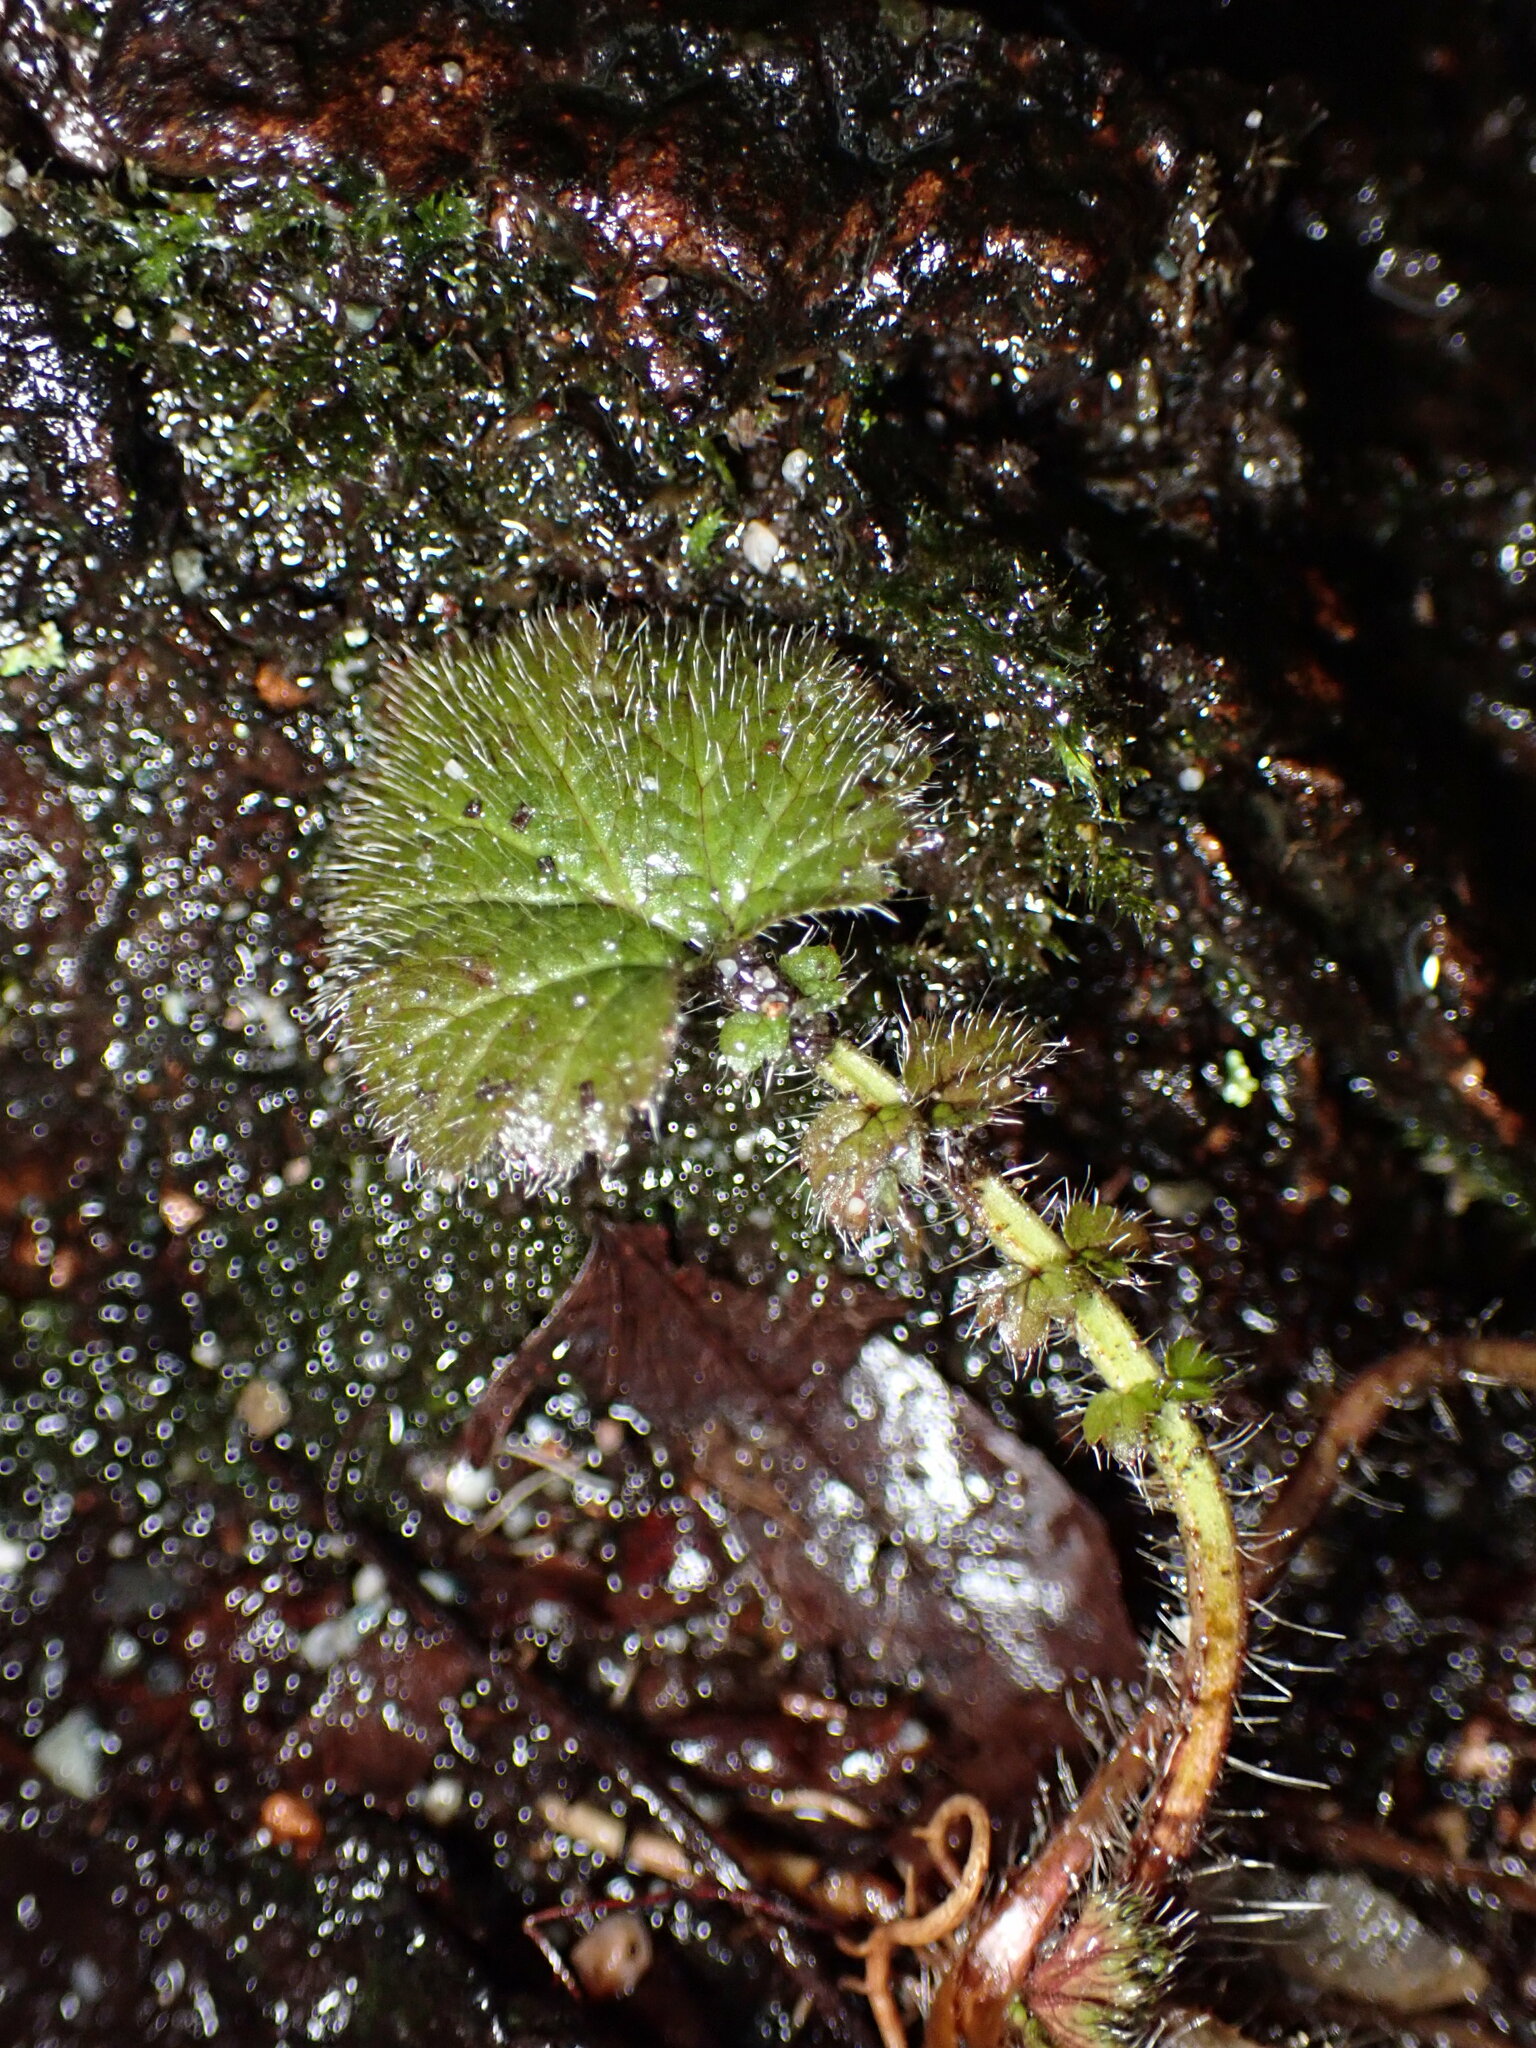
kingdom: Plantae
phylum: Tracheophyta
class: Magnoliopsida
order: Rosales
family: Rosaceae
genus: Geum
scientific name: Geum macrophyllum
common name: Large-leaved avens
